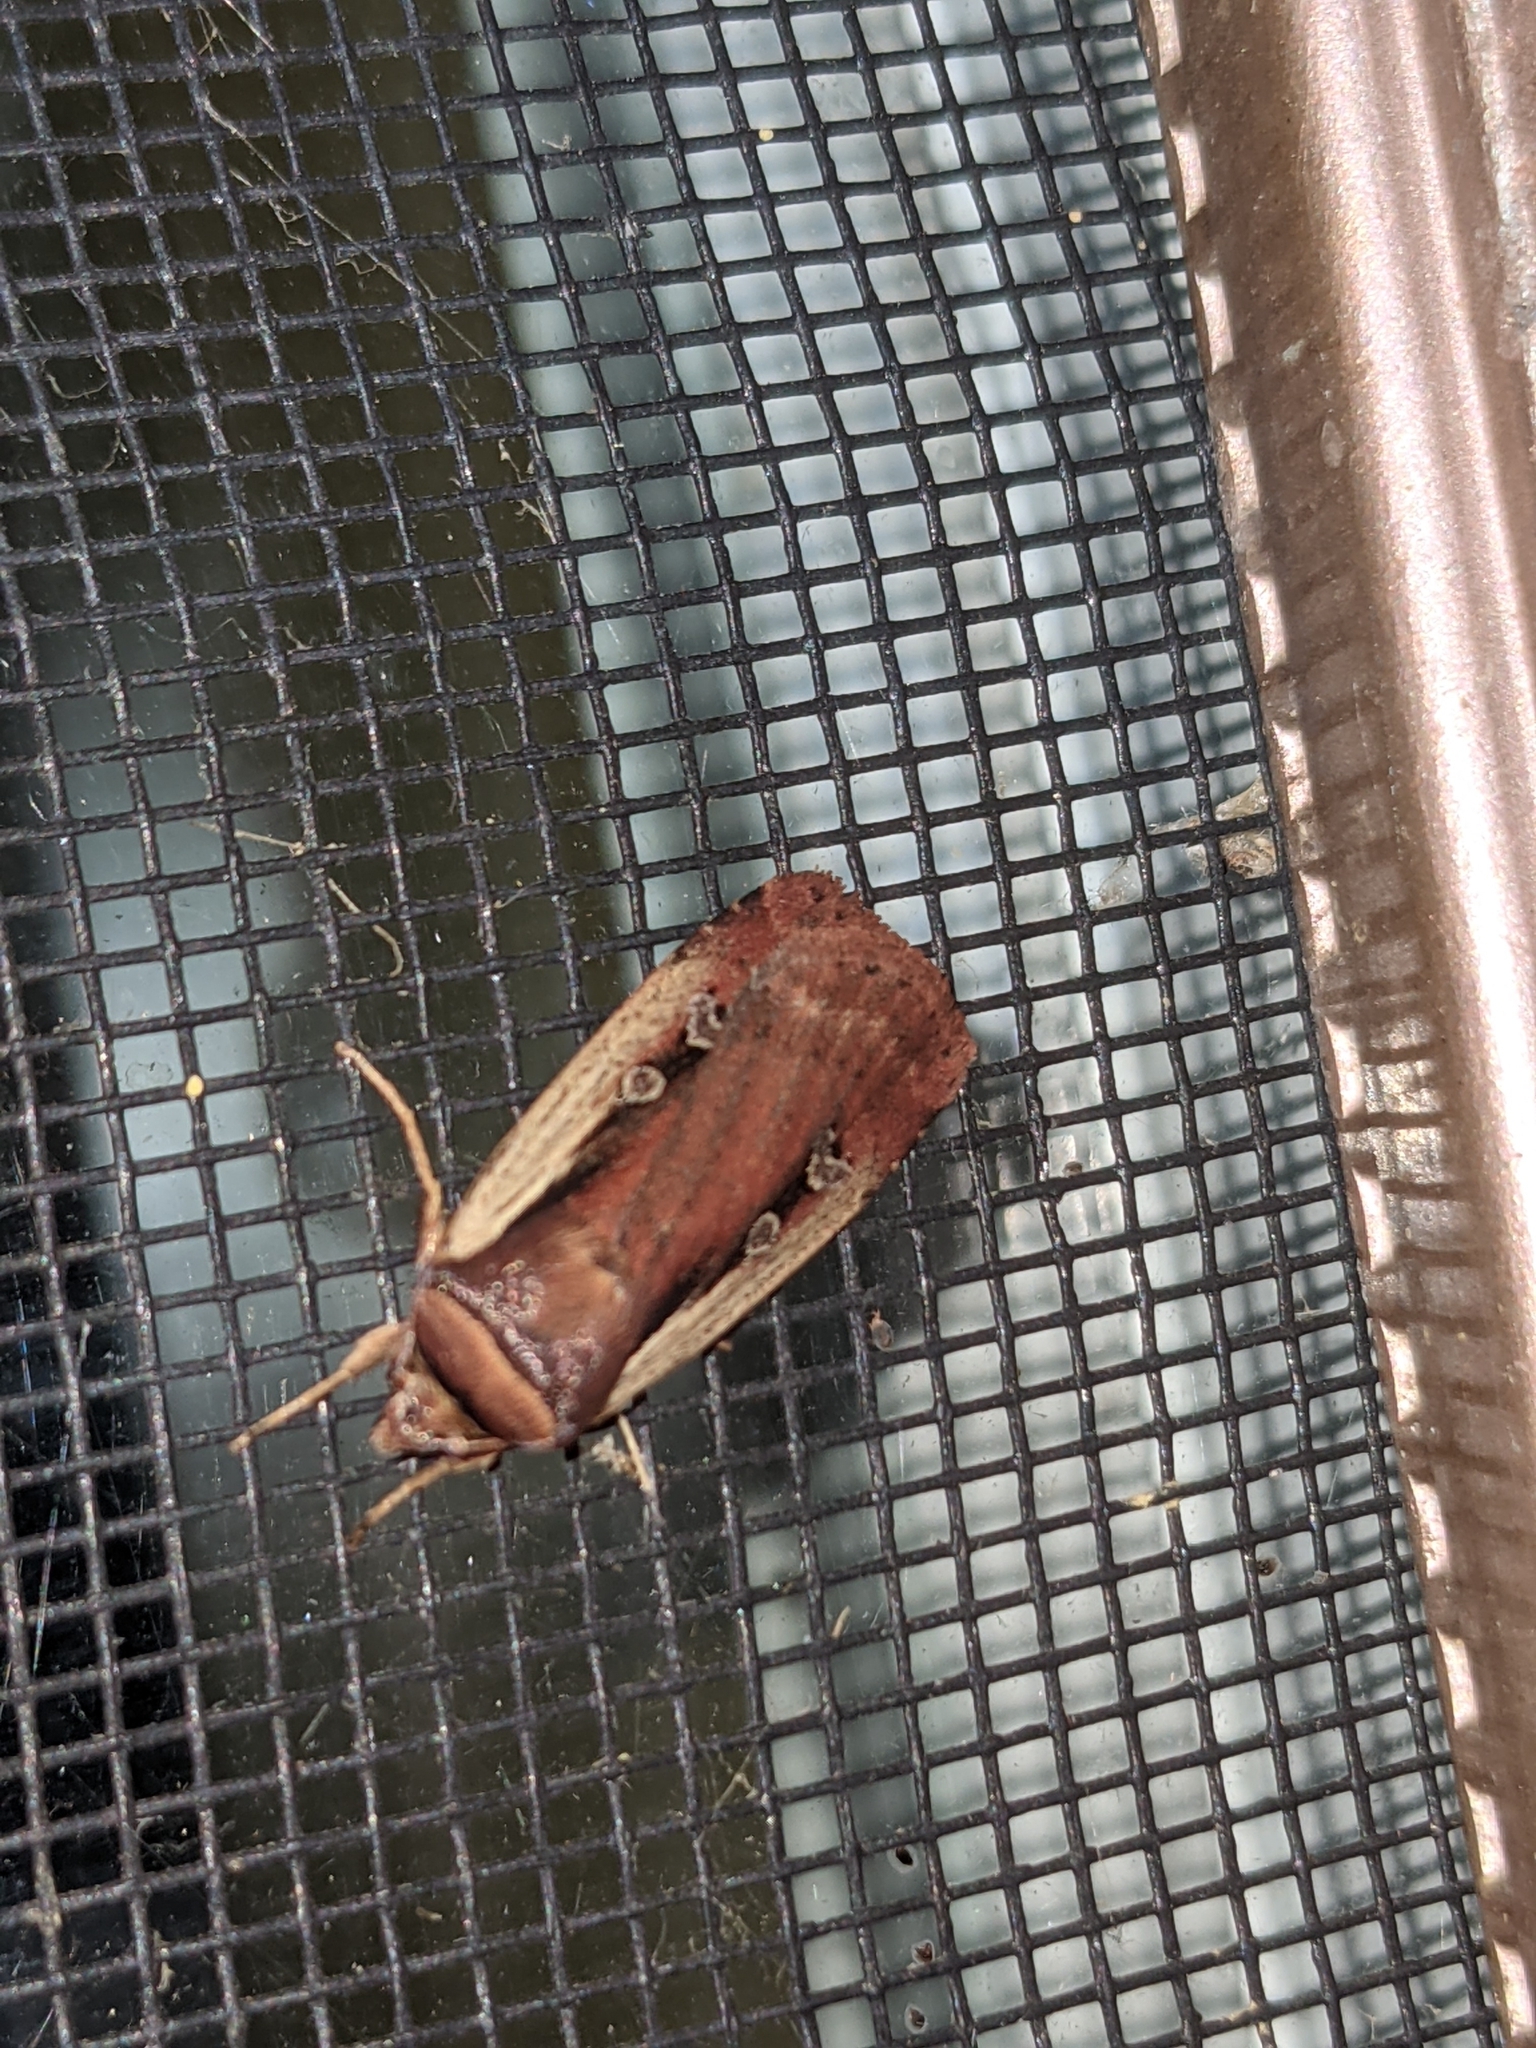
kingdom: Animalia
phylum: Arthropoda
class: Insecta
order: Lepidoptera
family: Noctuidae
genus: Ochropleura
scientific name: Ochropleura implecta
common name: Flame-shouldered dart
